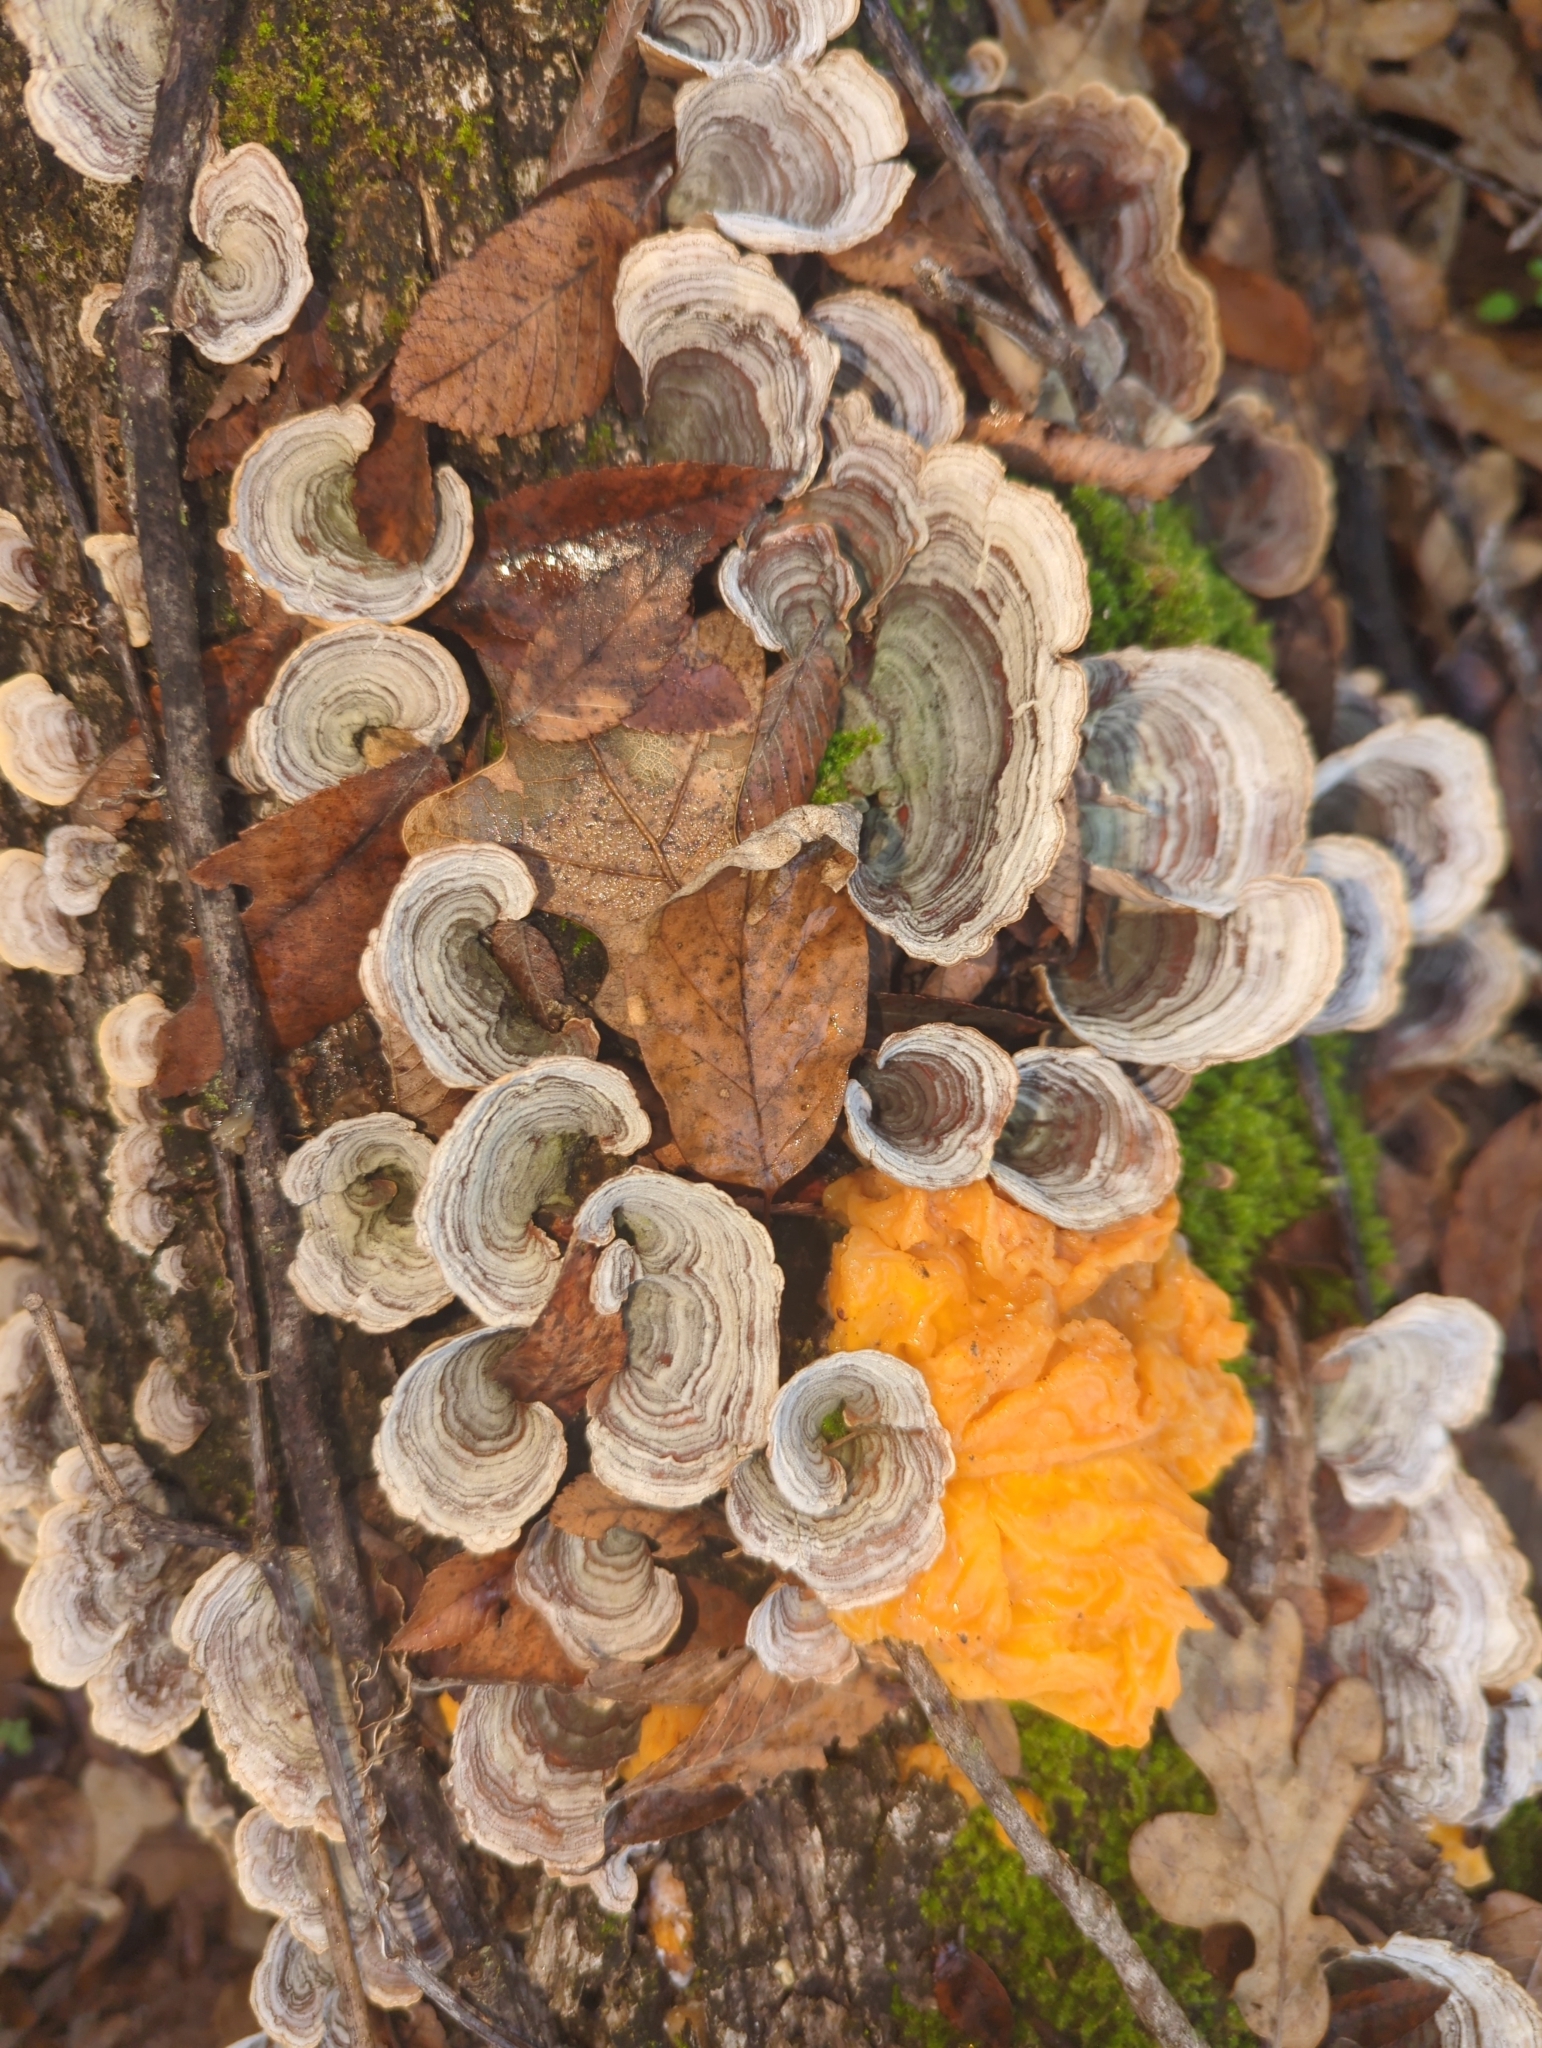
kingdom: Fungi
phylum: Basidiomycota
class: Tremellomycetes
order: Tremellales
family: Naemateliaceae
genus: Naematelia
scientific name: Naematelia aurantia
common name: Golden ear
